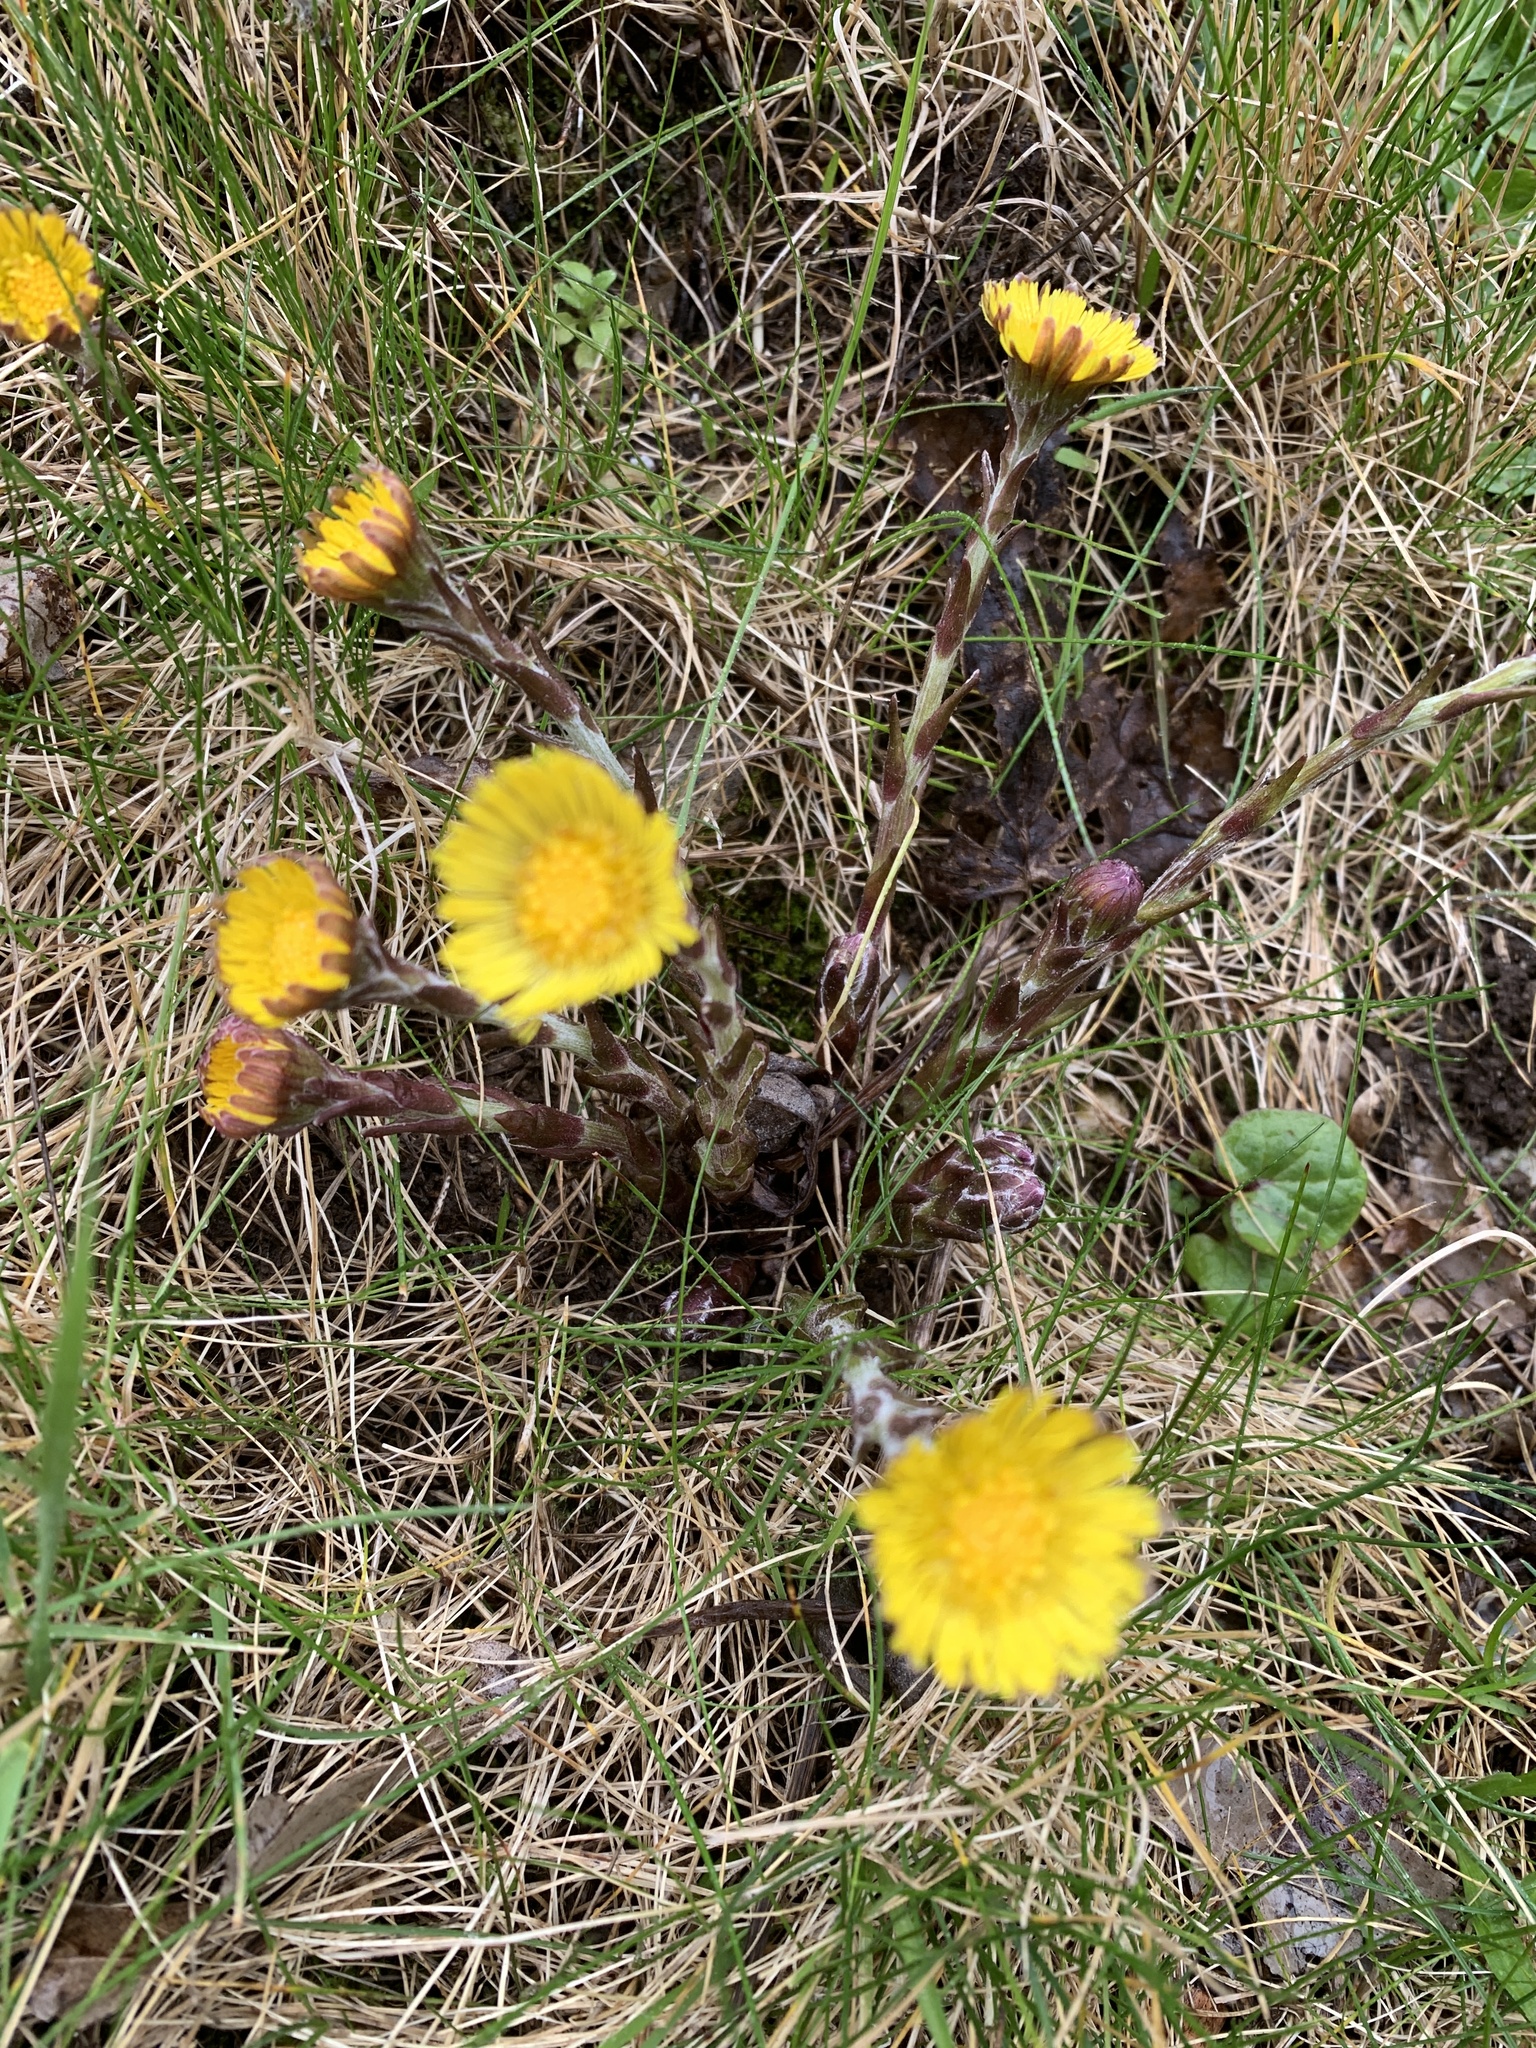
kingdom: Plantae
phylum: Tracheophyta
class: Magnoliopsida
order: Asterales
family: Asteraceae
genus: Tussilago
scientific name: Tussilago farfara
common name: Coltsfoot
